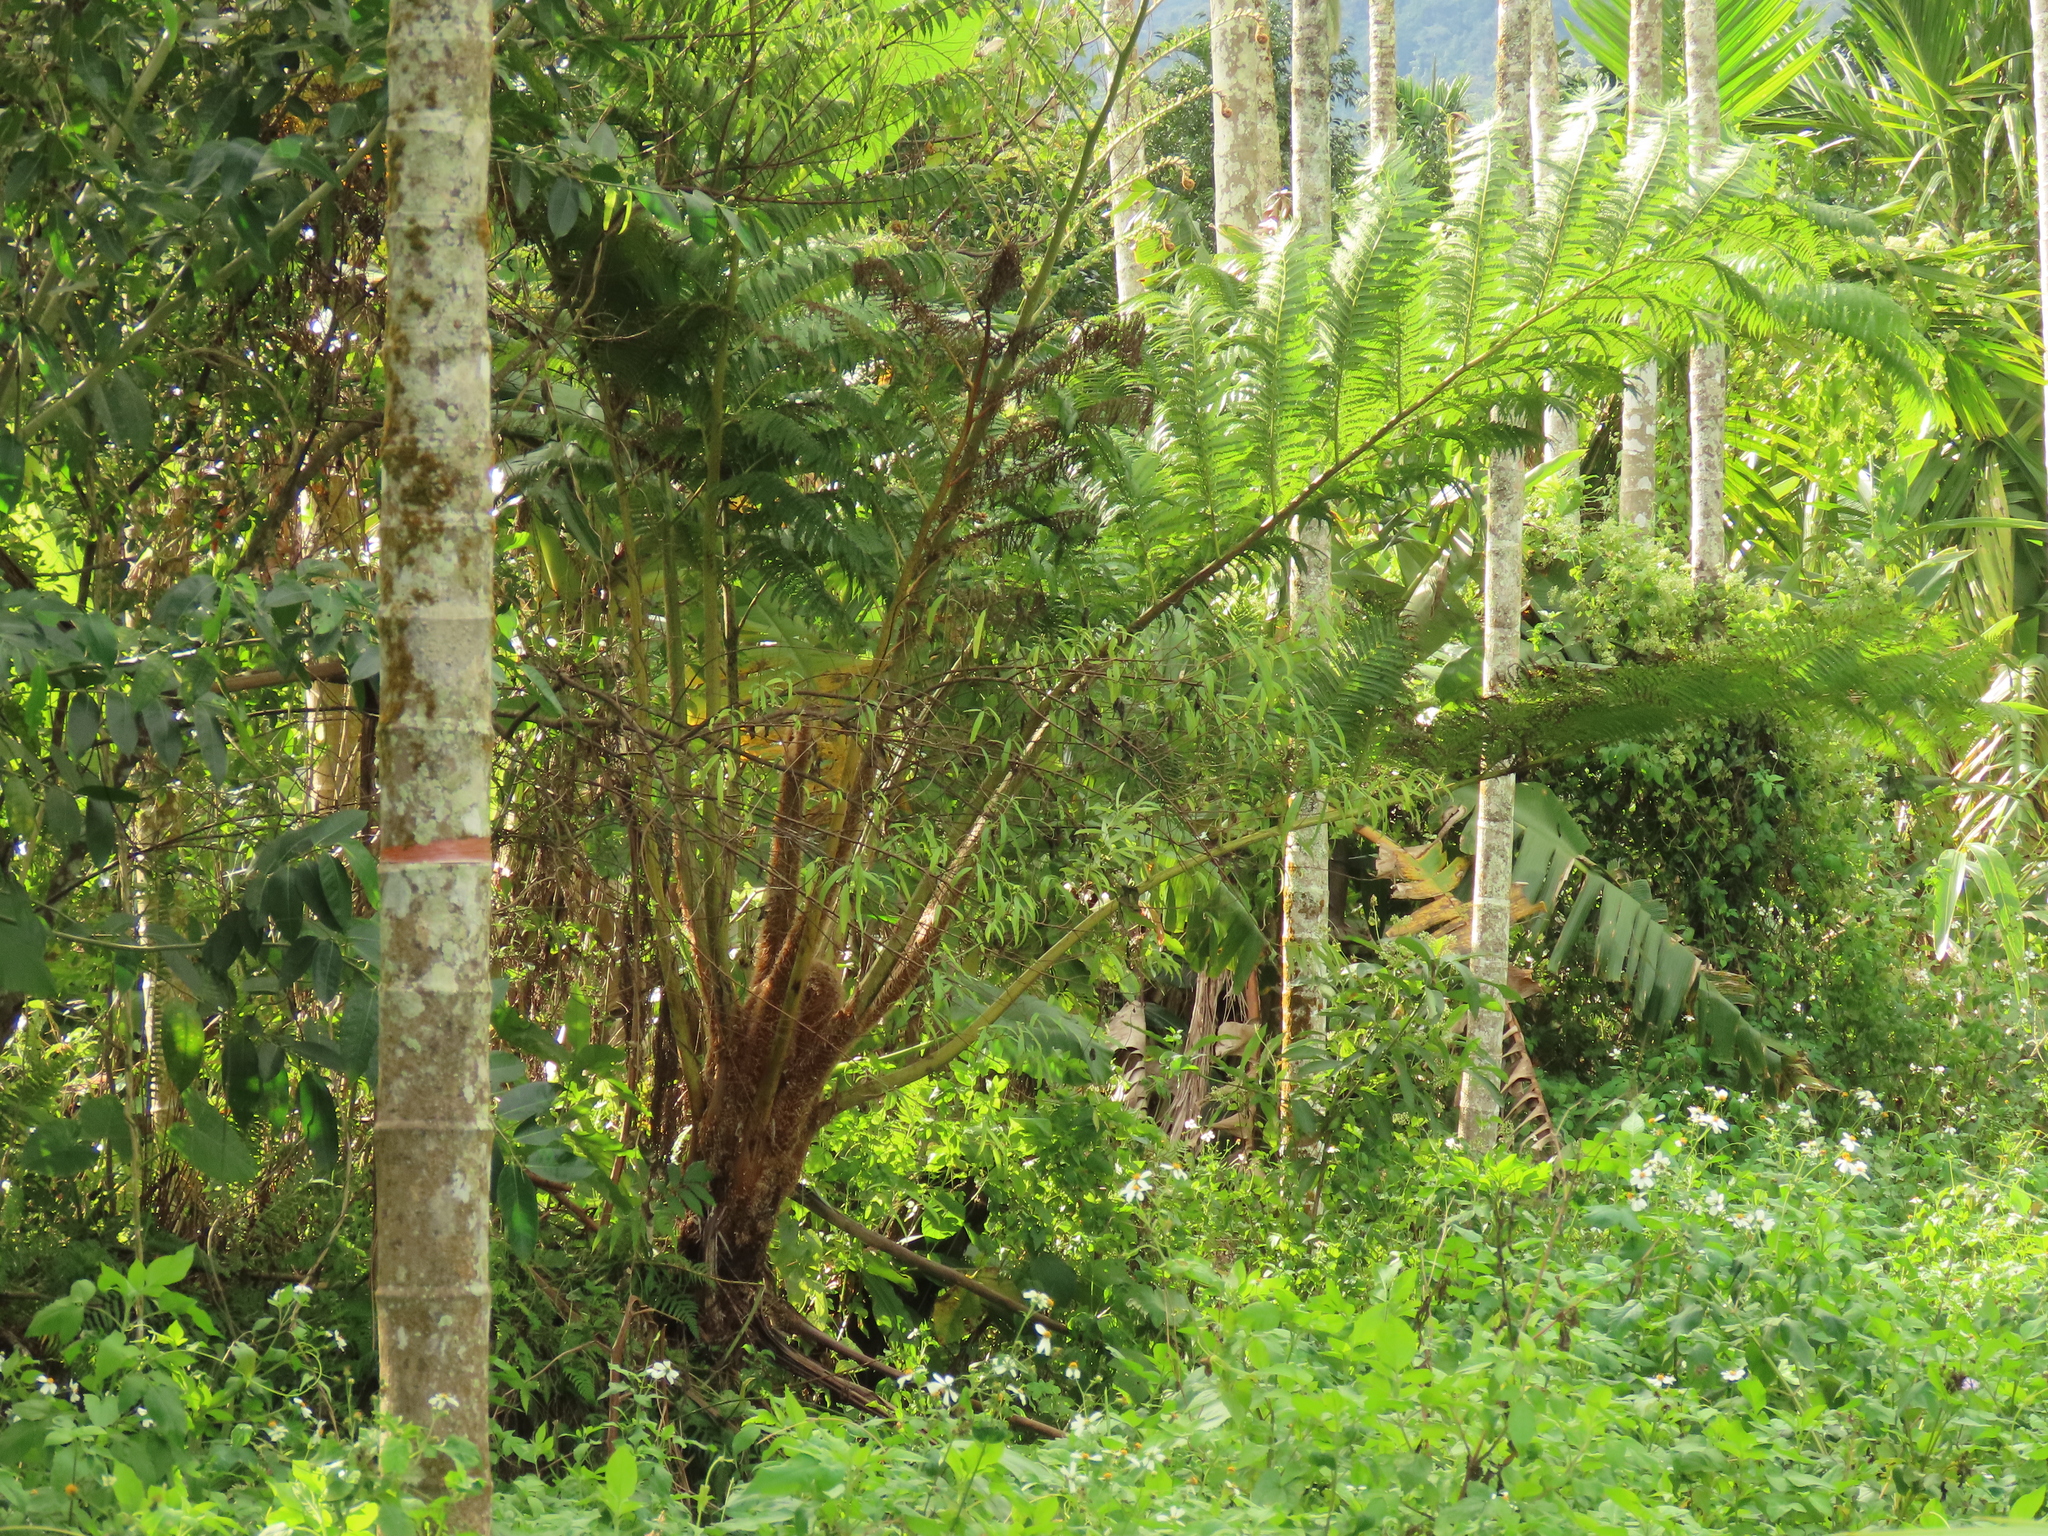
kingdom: Plantae
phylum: Tracheophyta
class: Polypodiopsida
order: Cyatheales
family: Cyatheaceae
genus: Alsophila
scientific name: Alsophila lepifera
